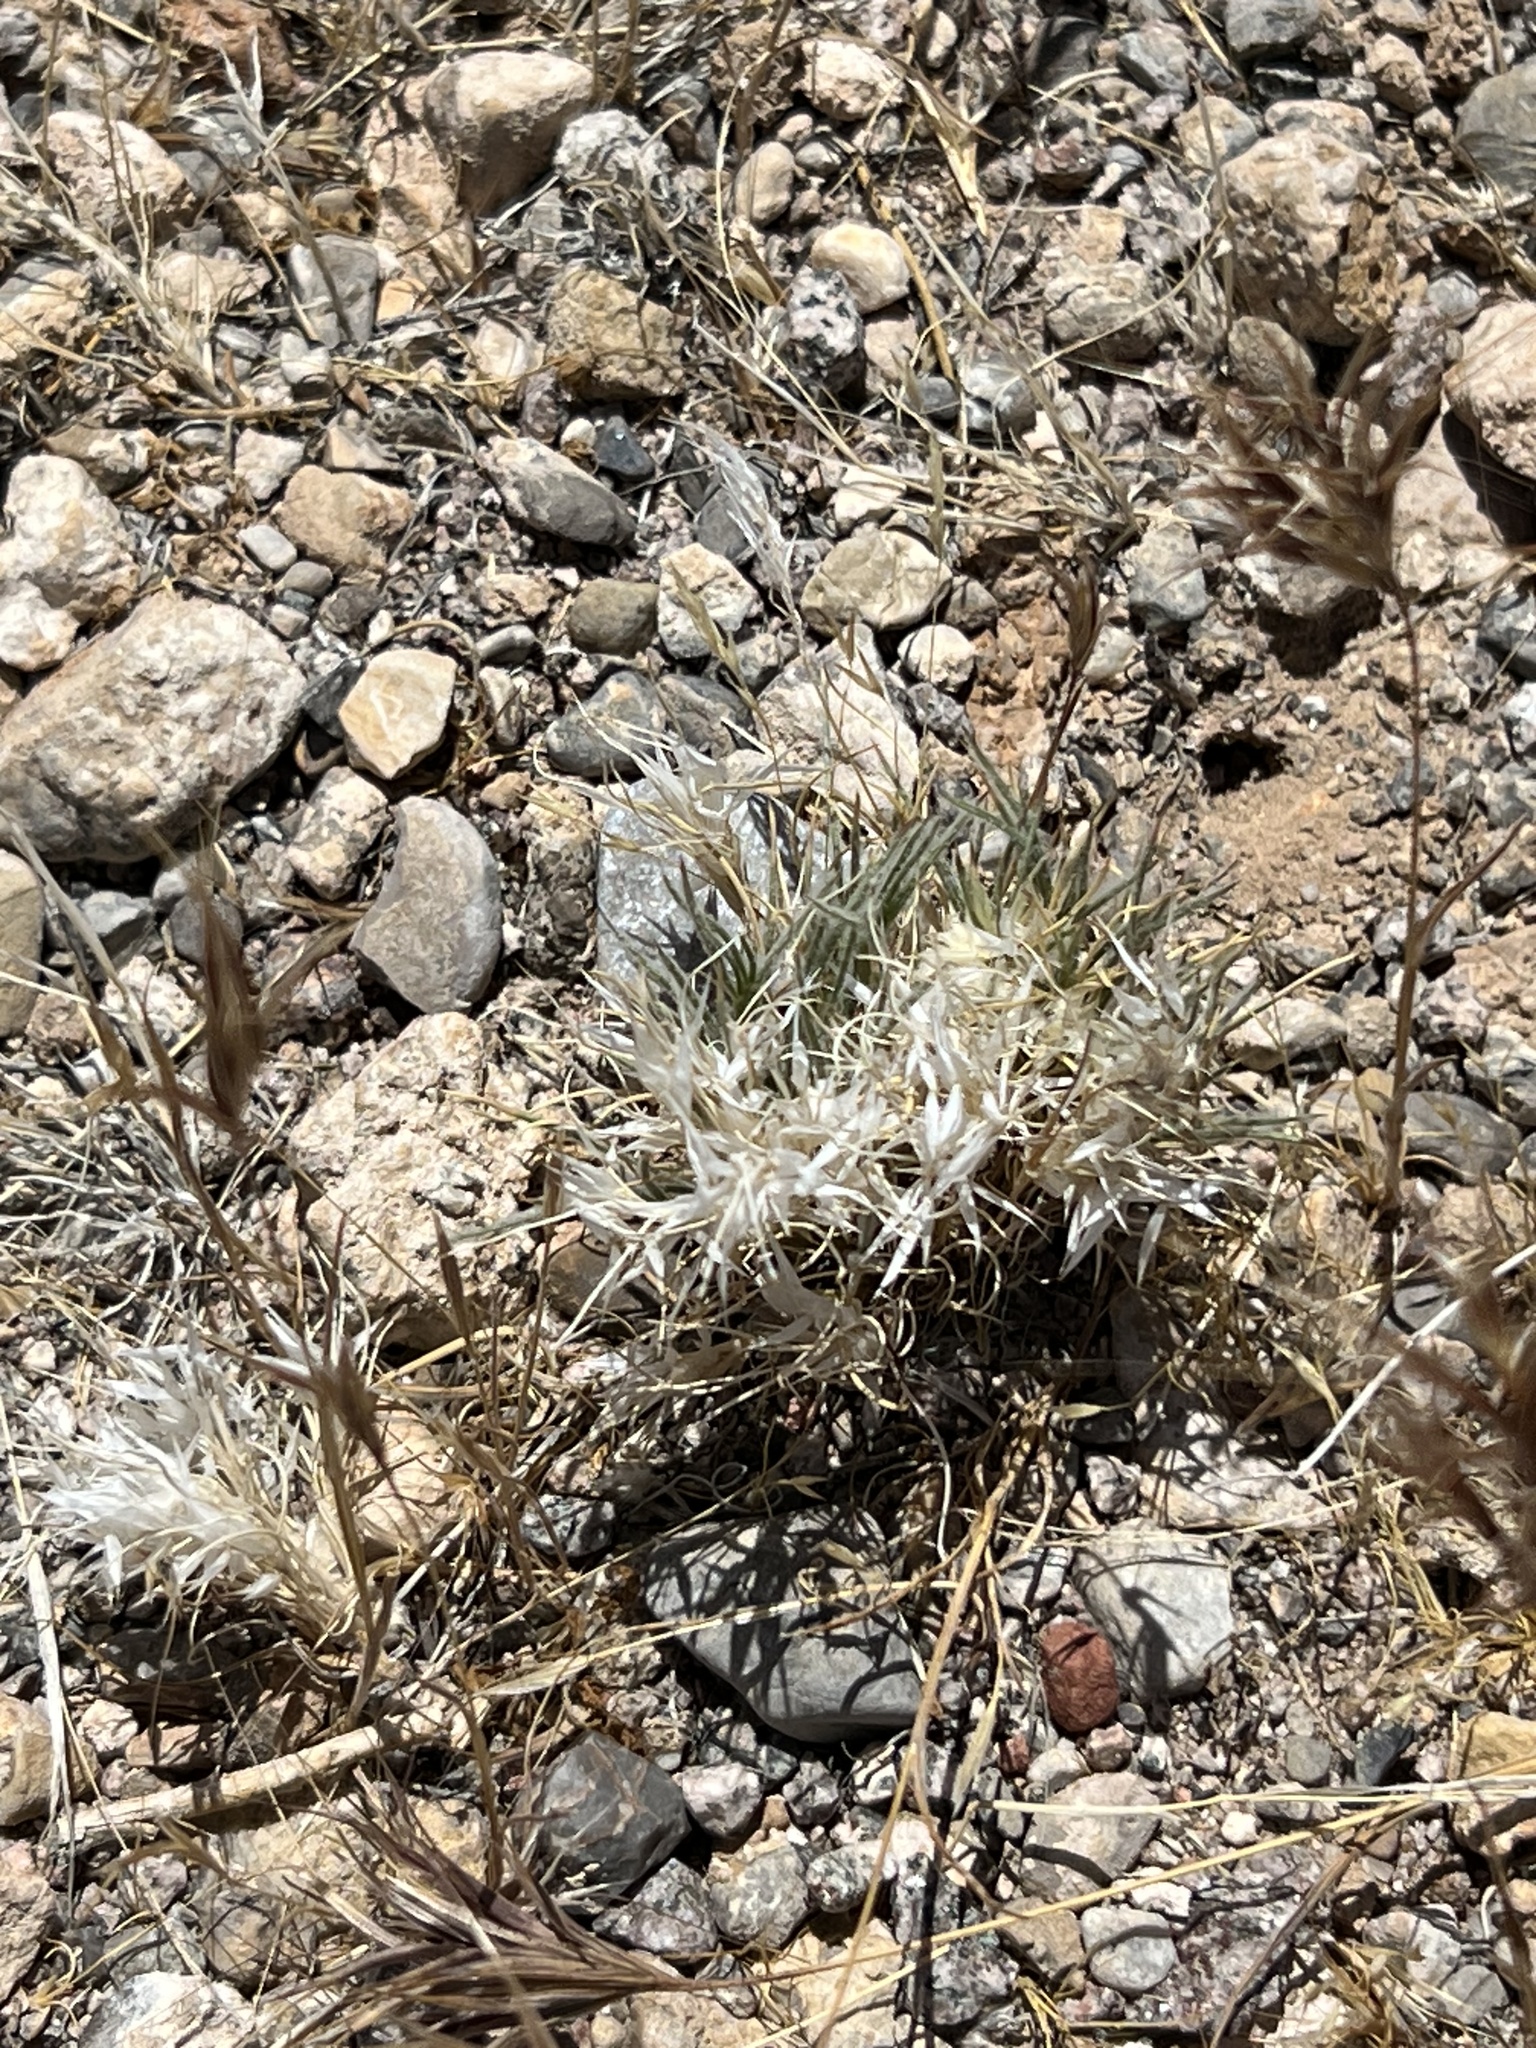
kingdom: Plantae
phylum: Tracheophyta
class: Liliopsida
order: Poales
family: Poaceae
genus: Dasyochloa
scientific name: Dasyochloa pulchella
